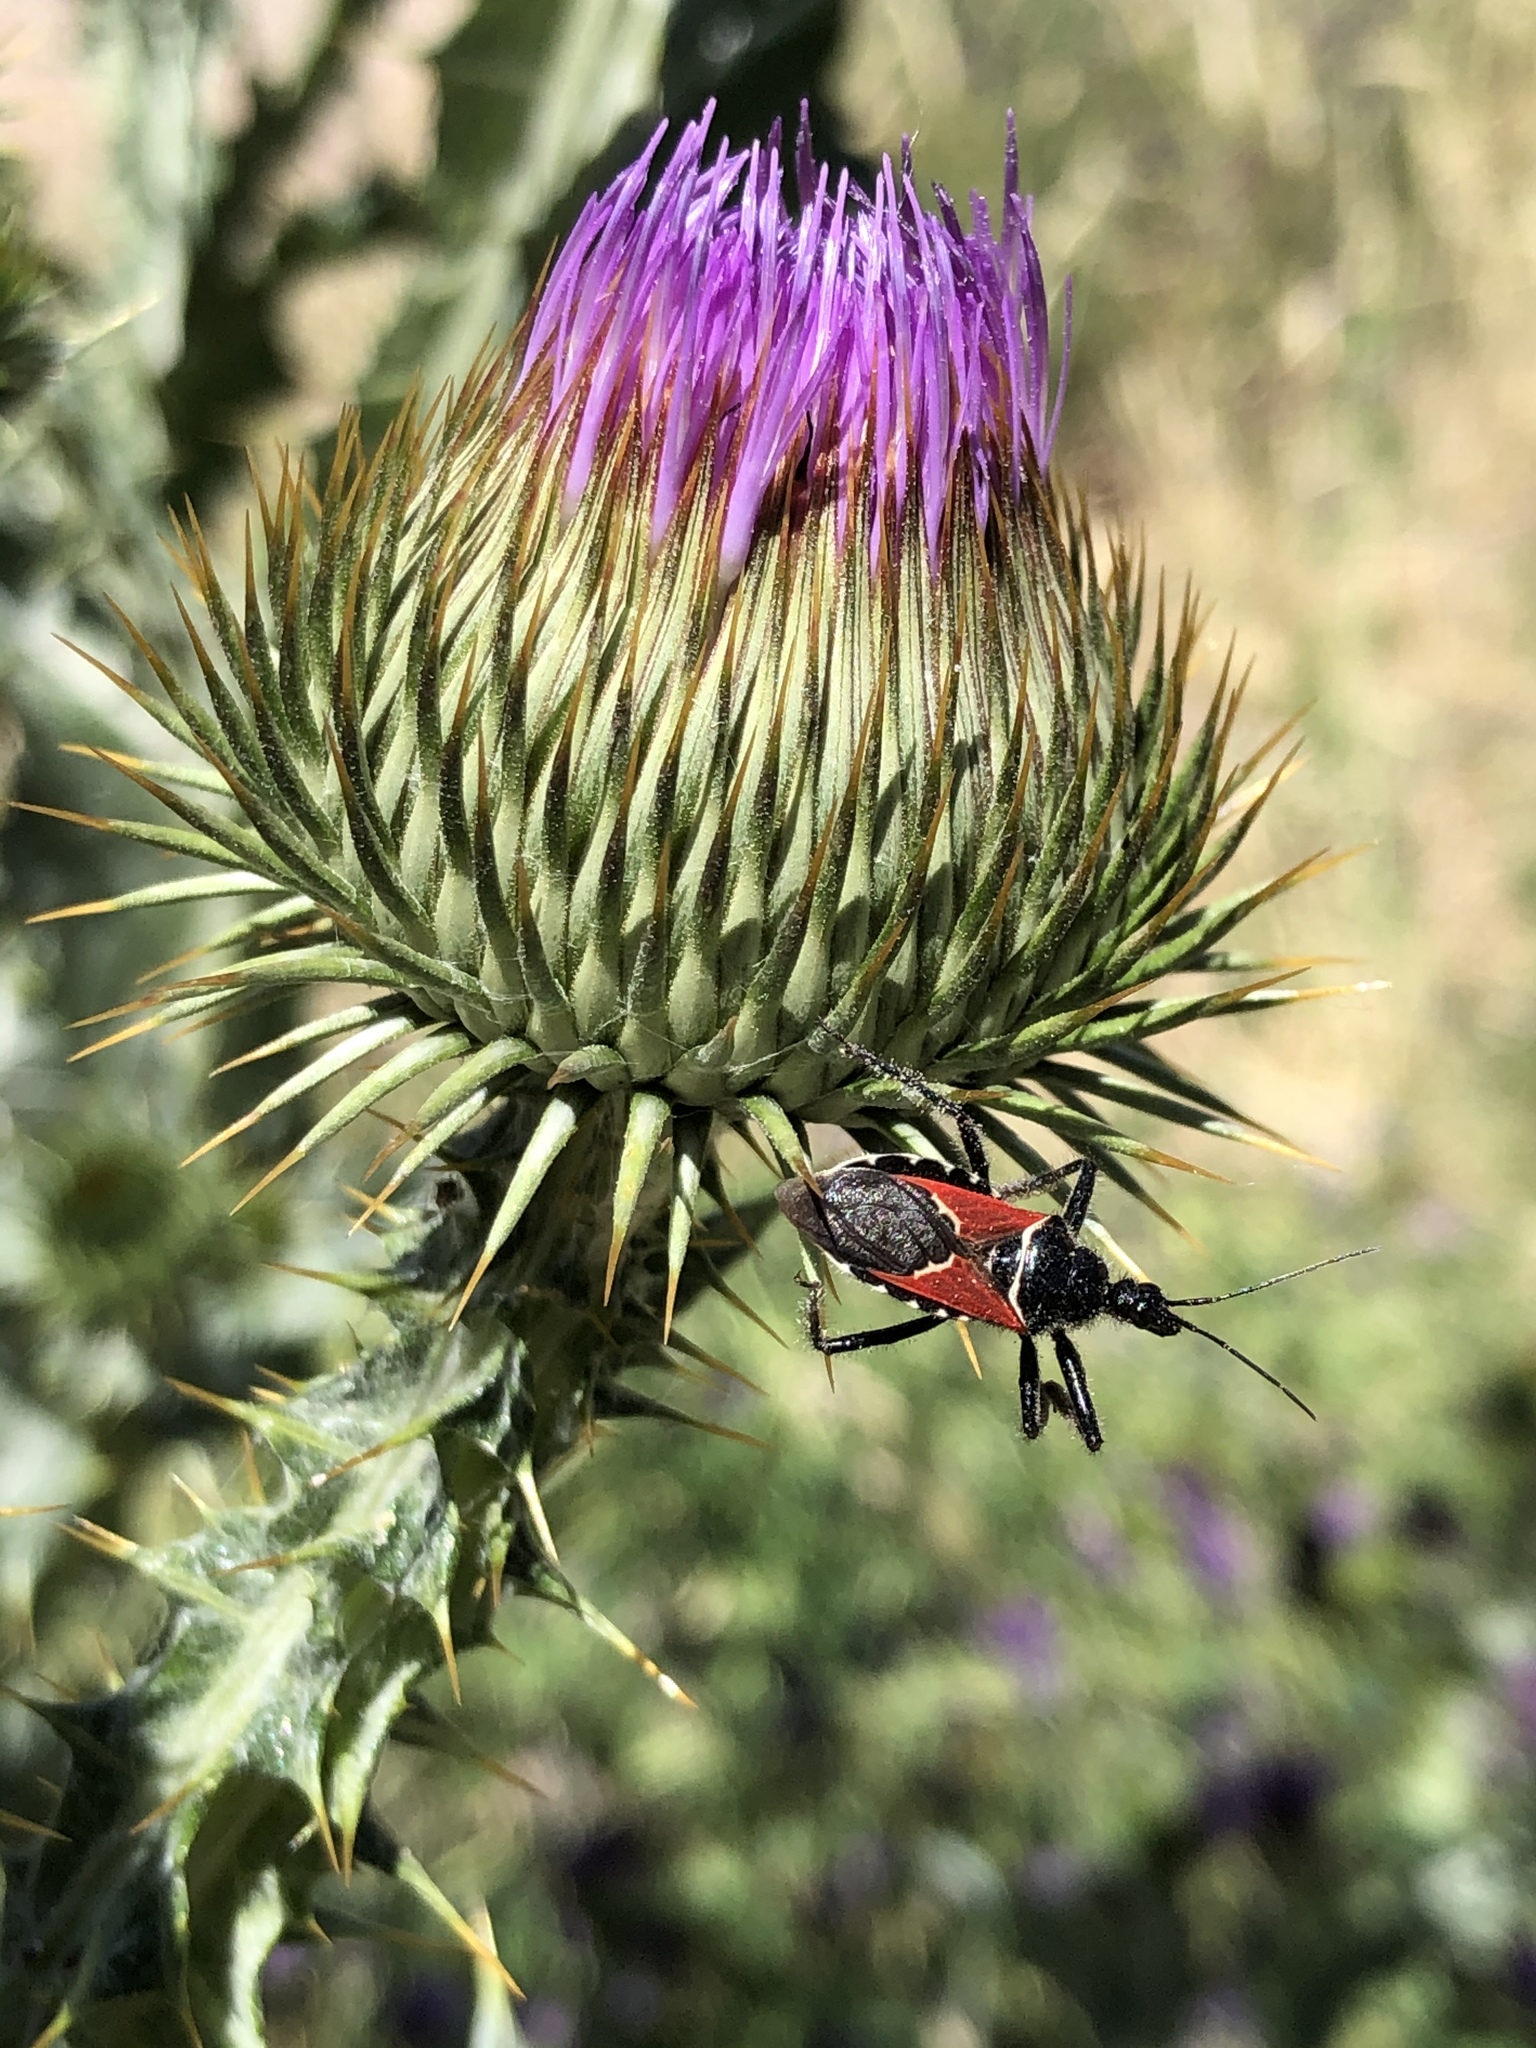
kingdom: Animalia
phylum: Arthropoda
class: Insecta
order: Hemiptera
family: Reduviidae
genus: Apiomerus
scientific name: Apiomerus montanus
